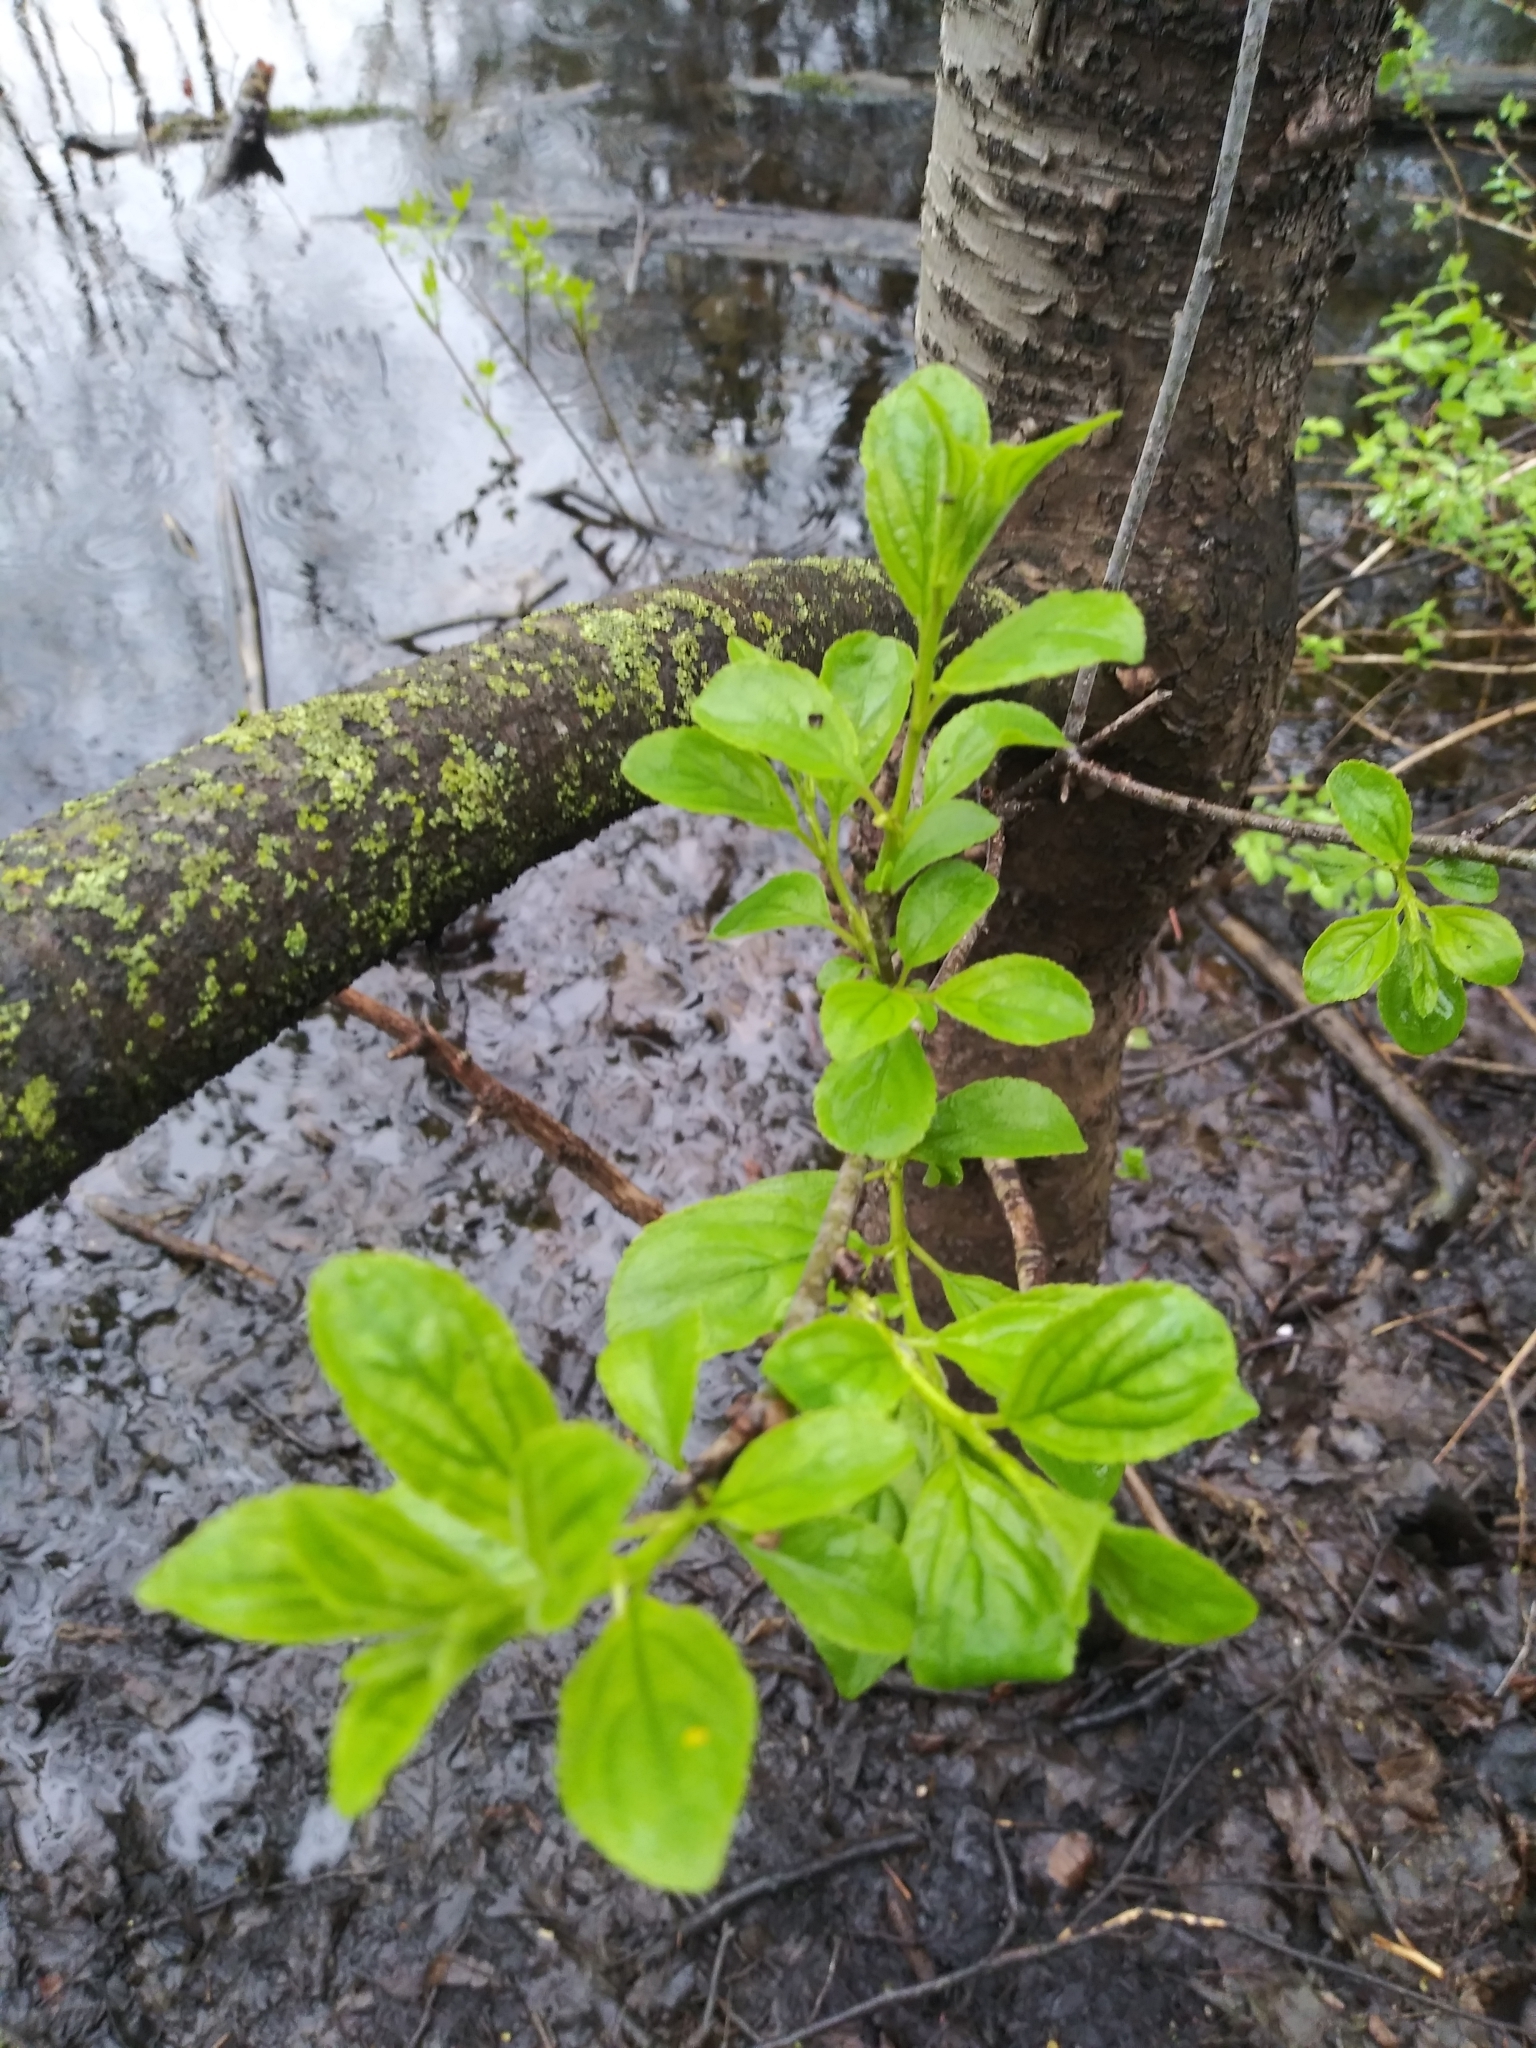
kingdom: Plantae
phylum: Tracheophyta
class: Magnoliopsida
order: Rosales
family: Rhamnaceae
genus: Rhamnus
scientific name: Rhamnus cathartica
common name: Common buckthorn
